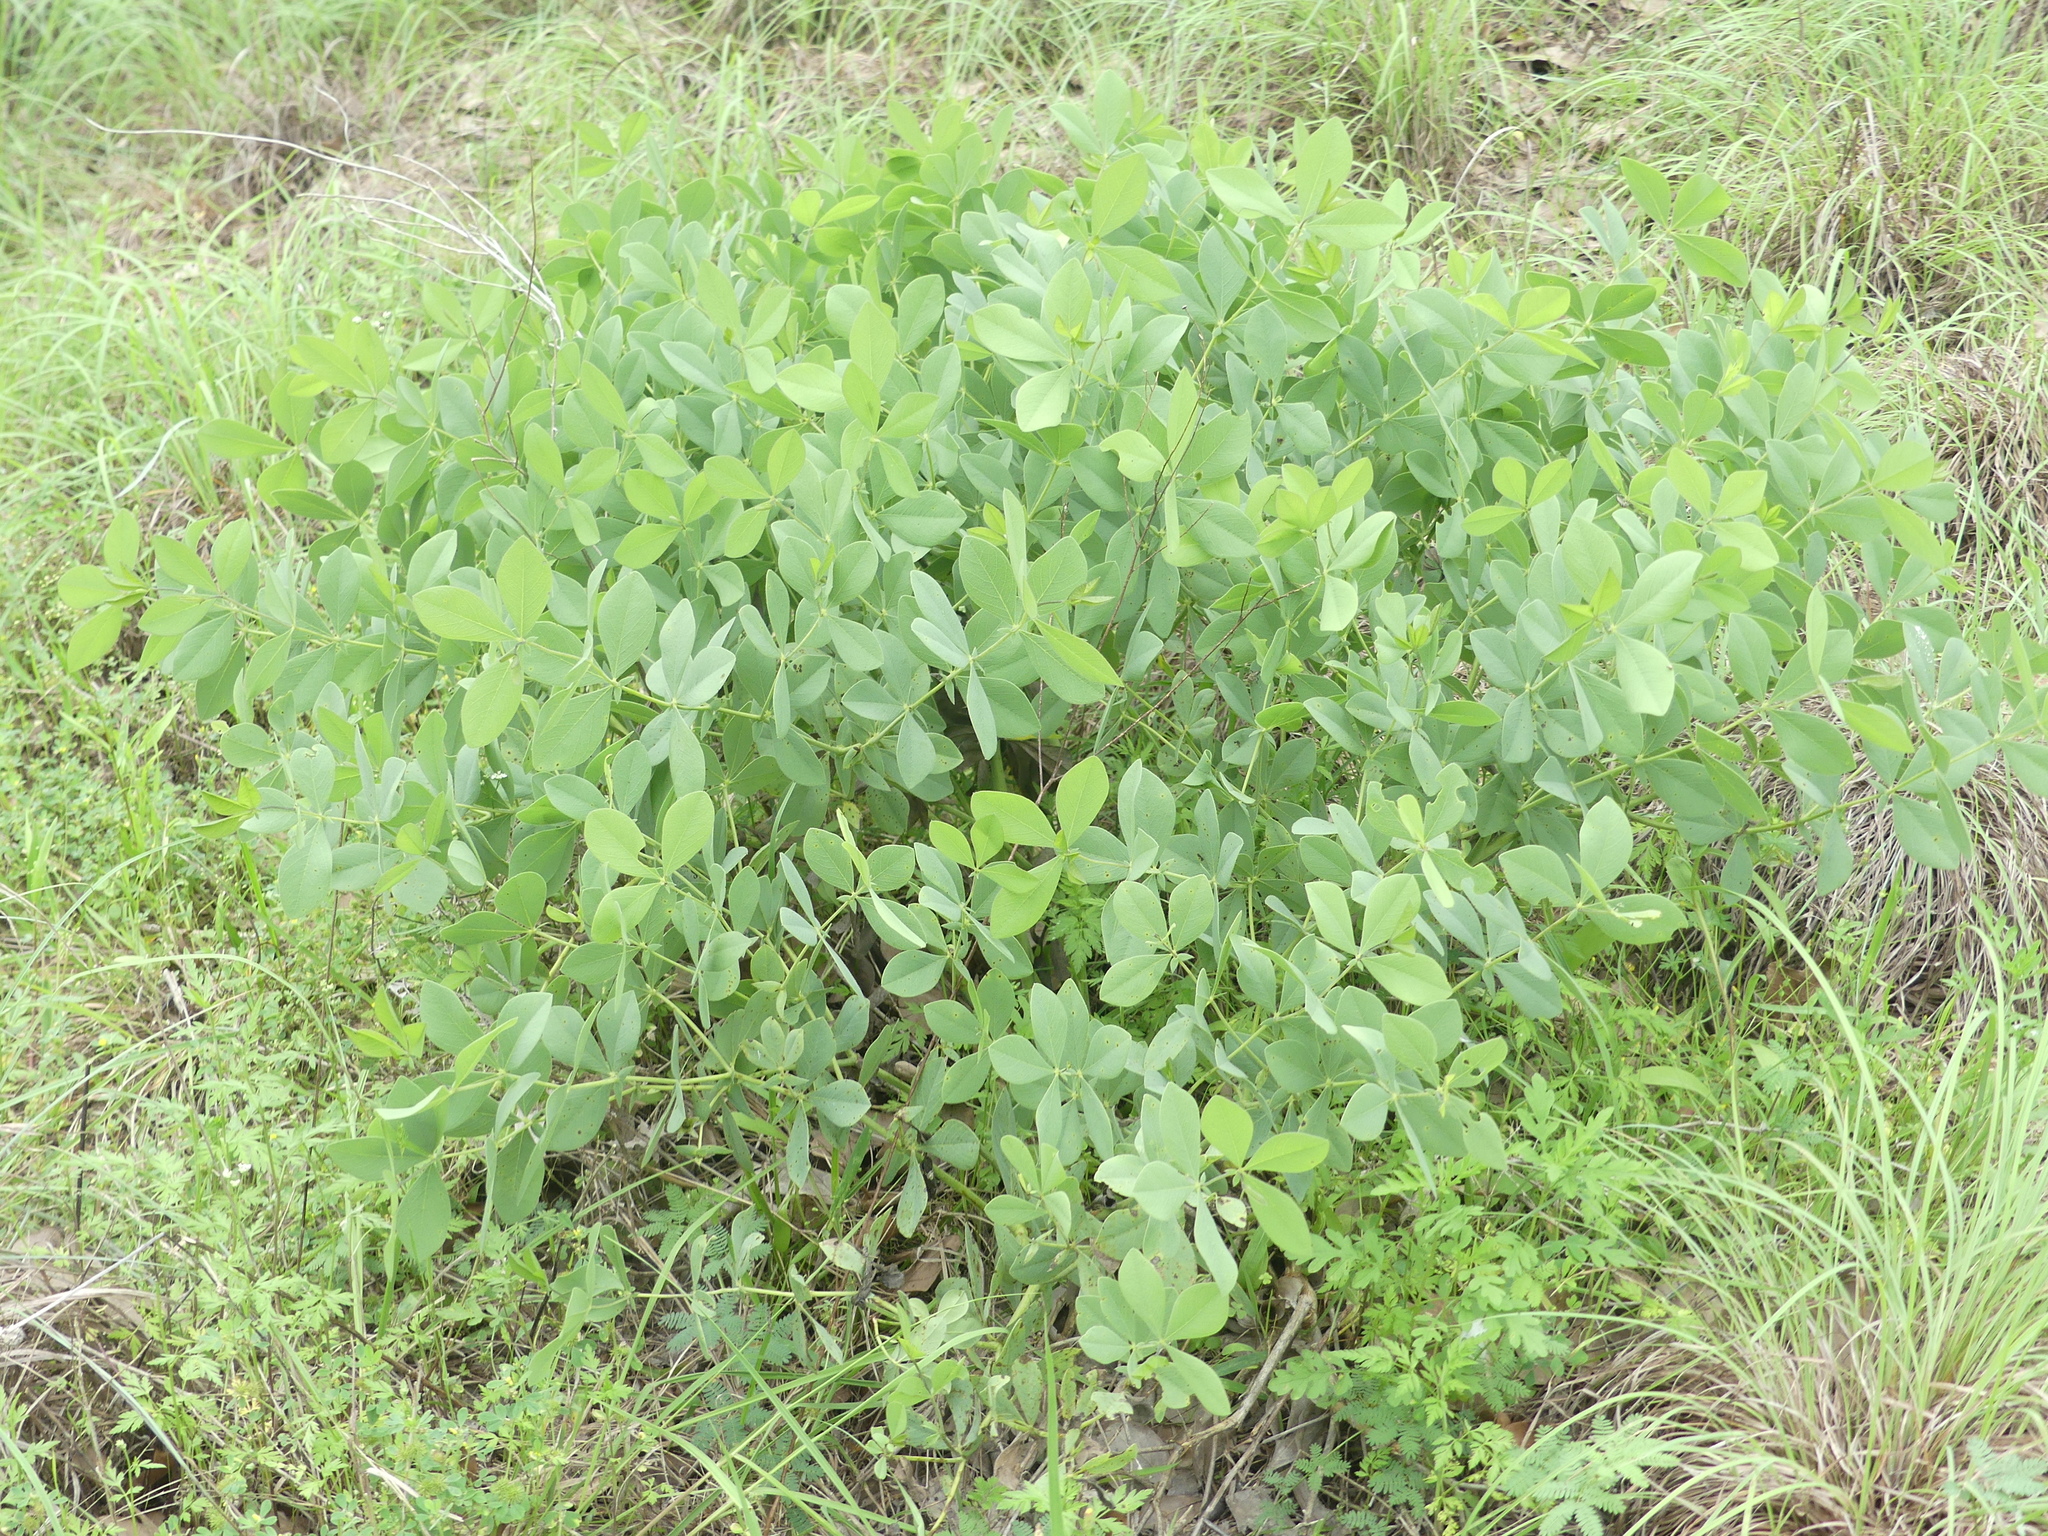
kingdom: Plantae
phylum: Tracheophyta
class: Magnoliopsida
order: Fabales
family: Fabaceae
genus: Baptisia
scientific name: Baptisia bracteata
